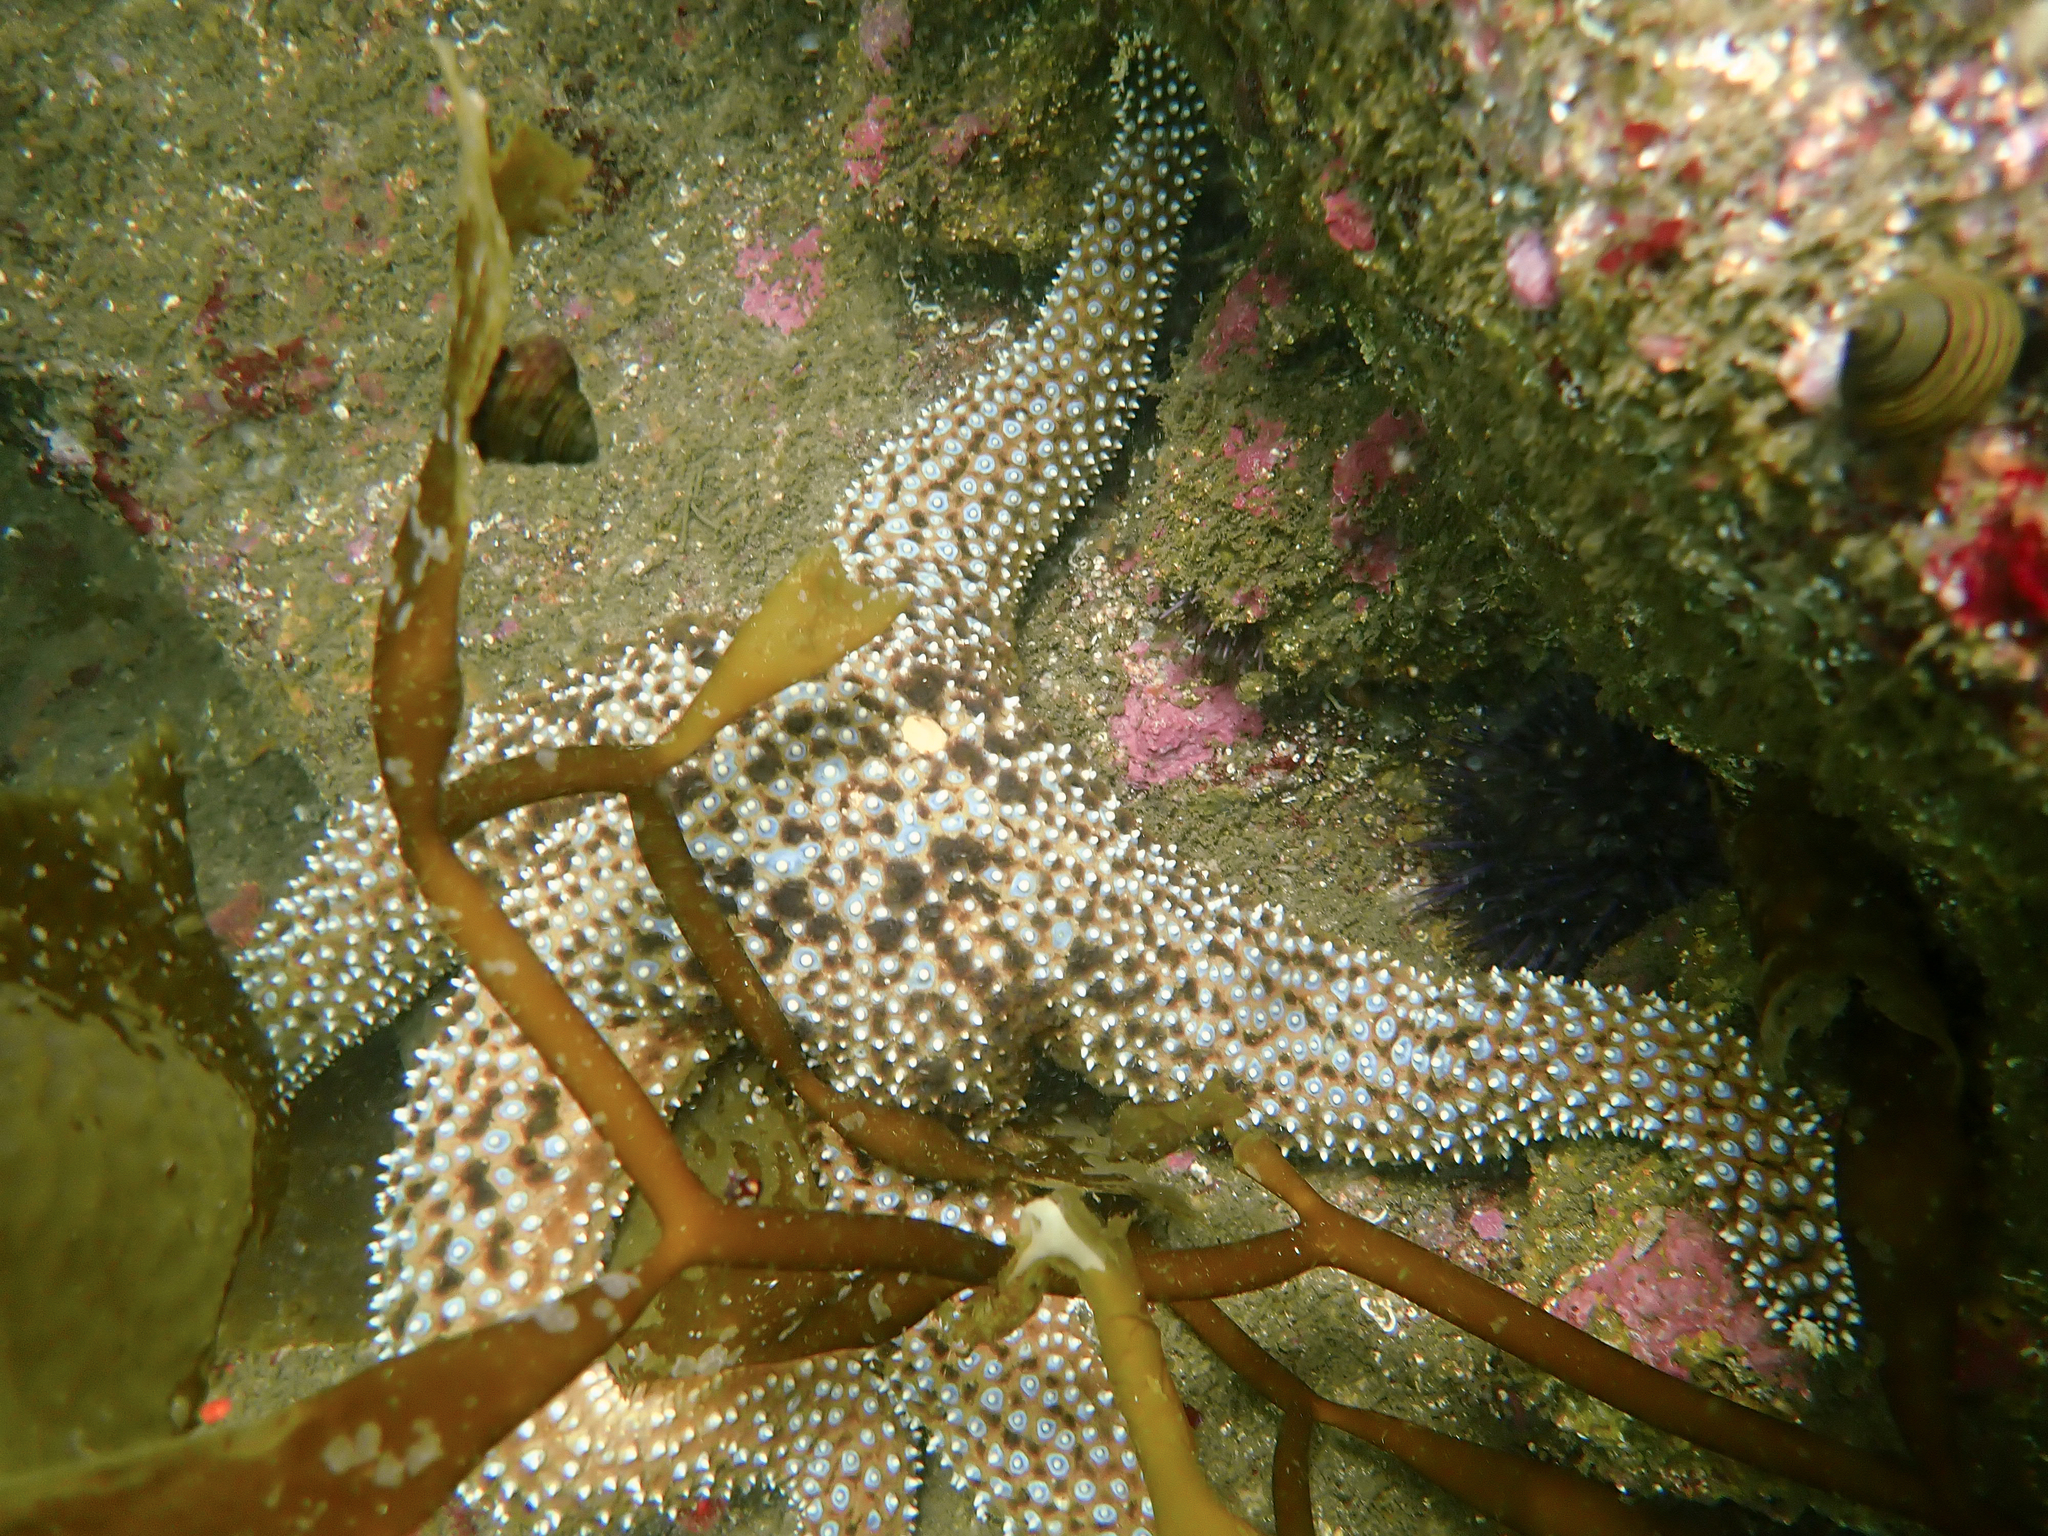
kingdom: Animalia
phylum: Echinodermata
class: Asteroidea
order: Forcipulatida
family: Asteriidae
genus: Pisaster
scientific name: Pisaster giganteus
